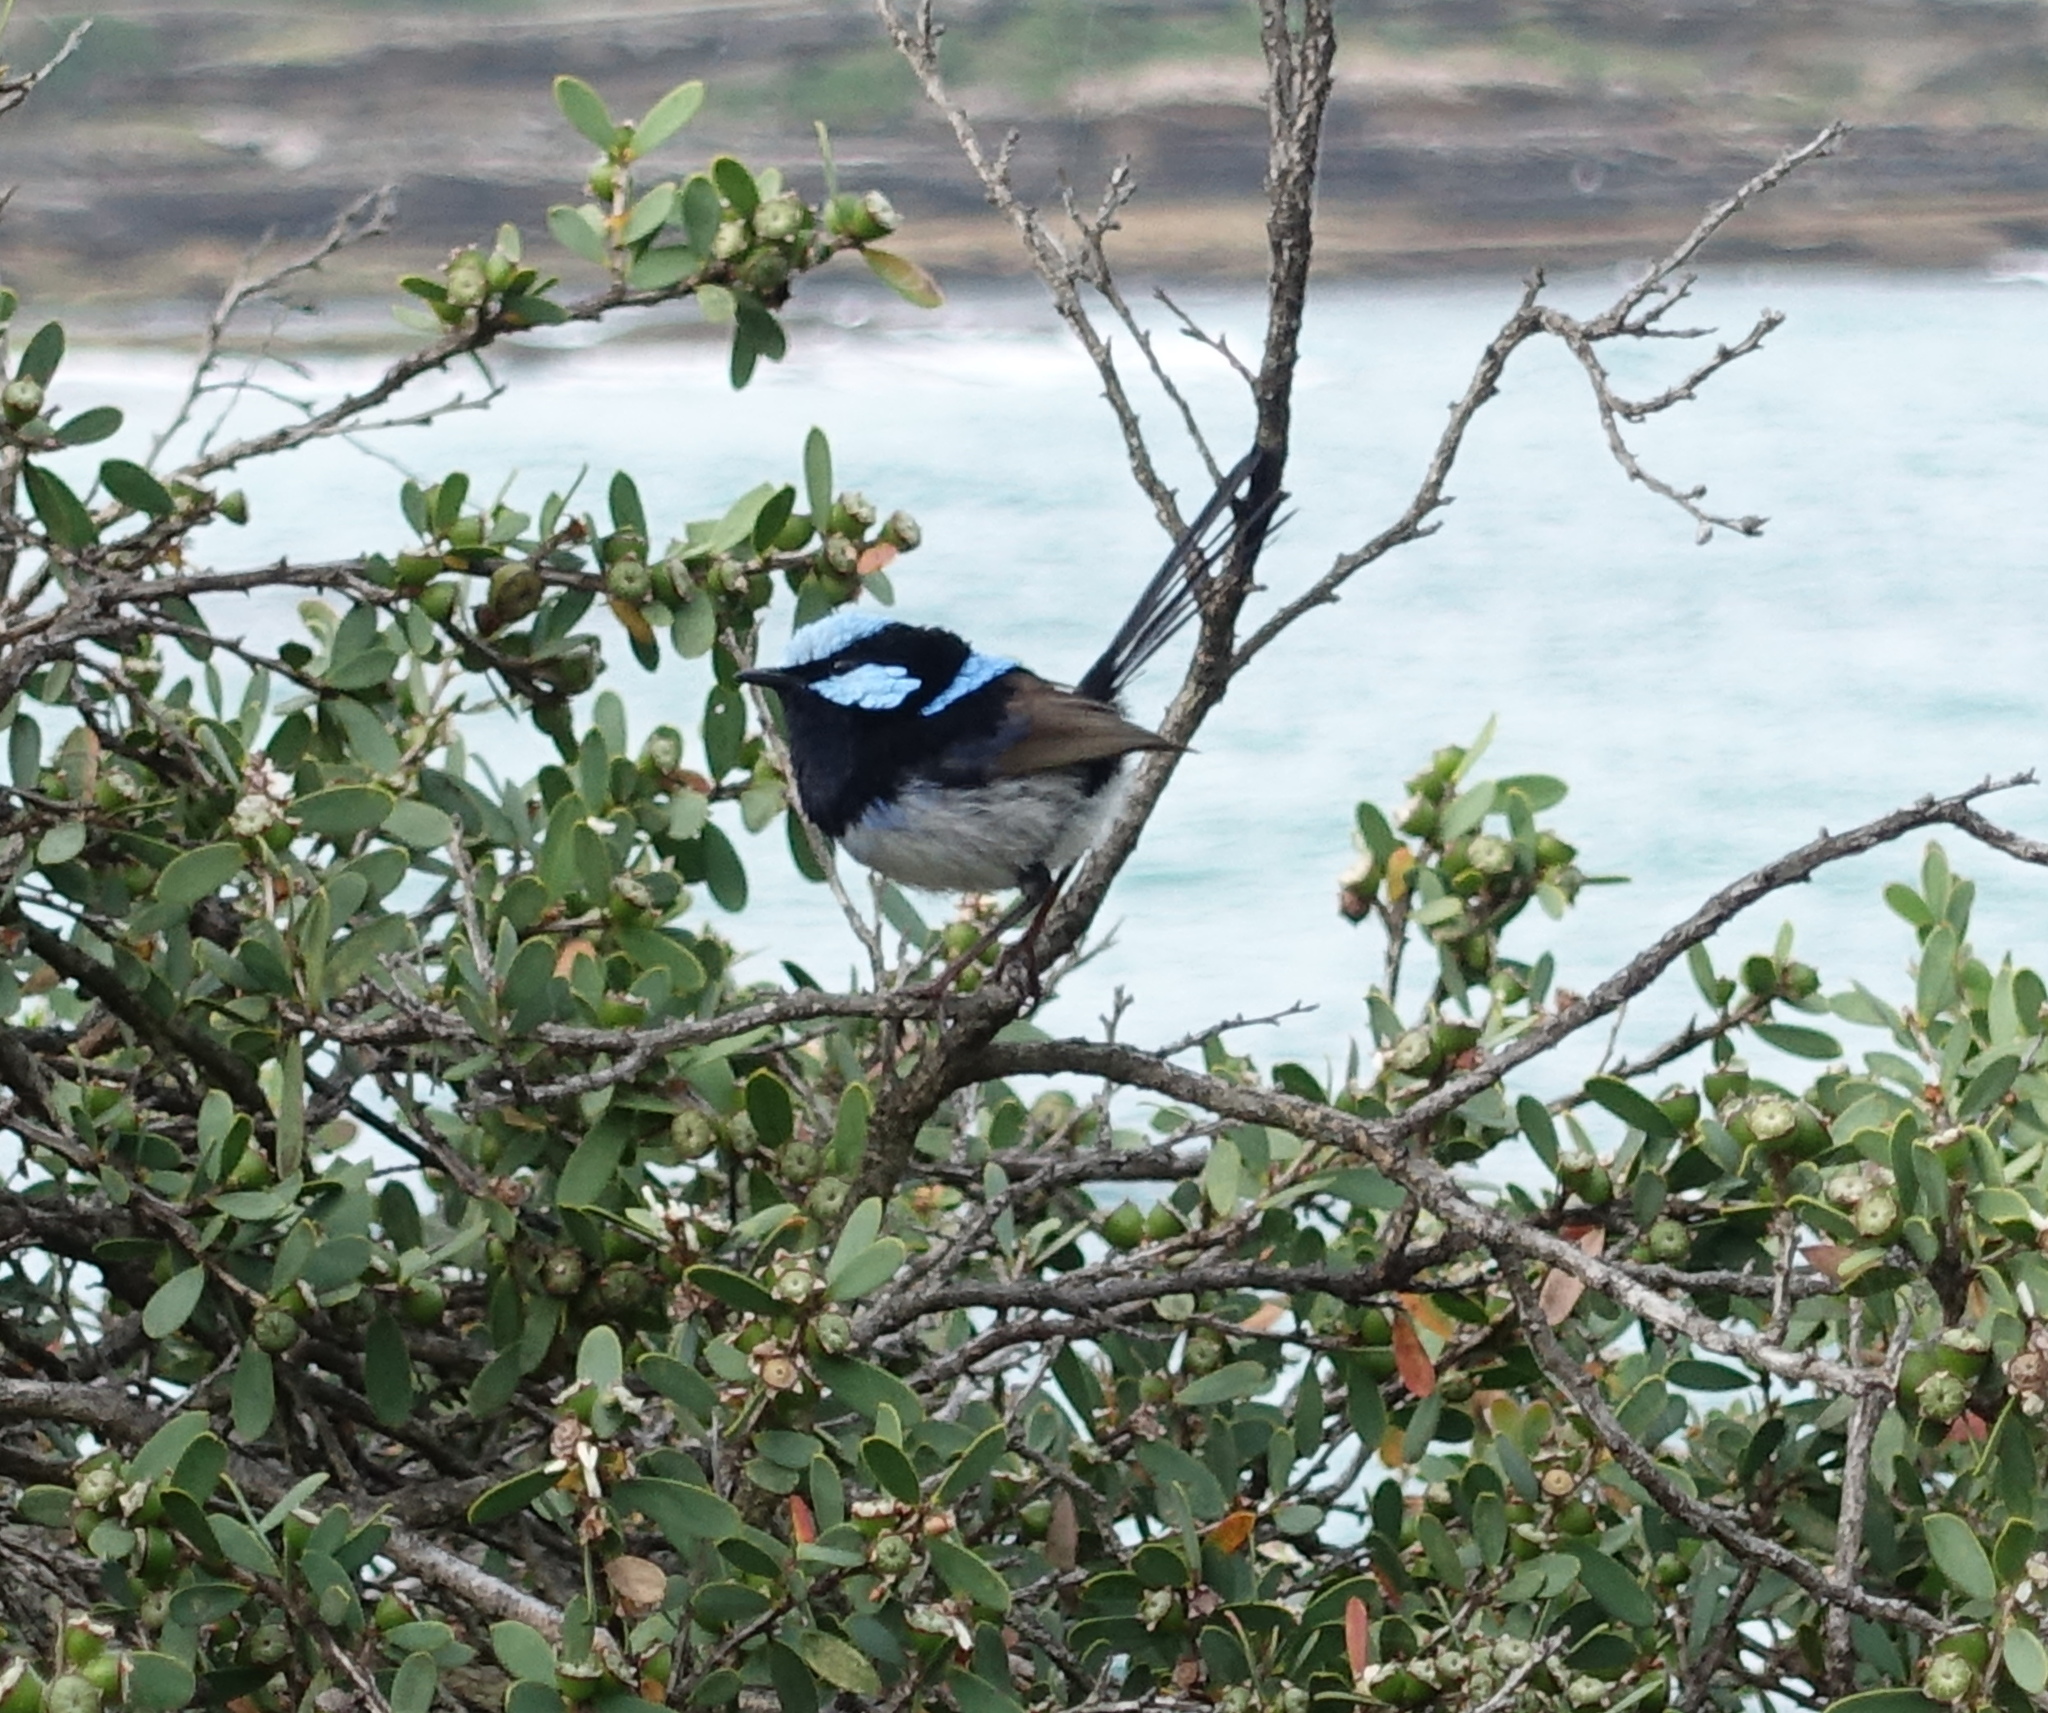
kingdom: Animalia
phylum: Chordata
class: Aves
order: Passeriformes
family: Maluridae
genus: Malurus
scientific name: Malurus cyaneus
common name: Superb fairywren
